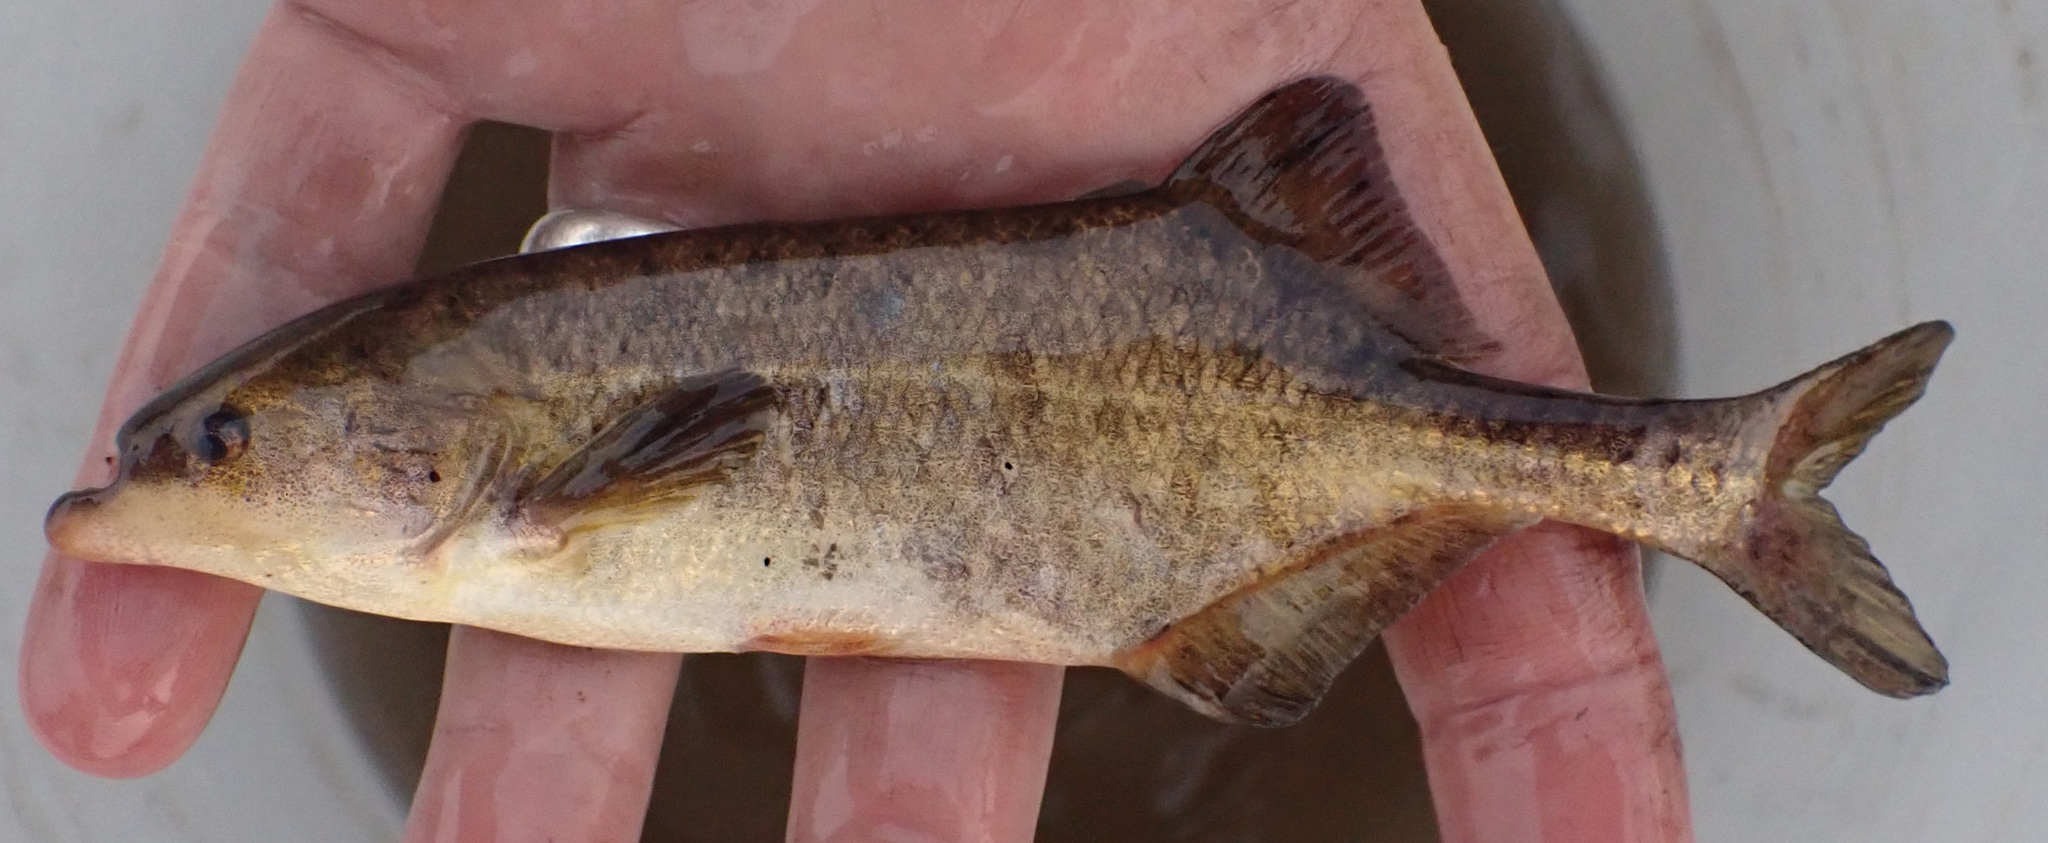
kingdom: Animalia
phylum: Chordata
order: Osteoglossiformes
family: Mormyridae
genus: Marcusenius
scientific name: Marcusenius altisambesi
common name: Bulldog
